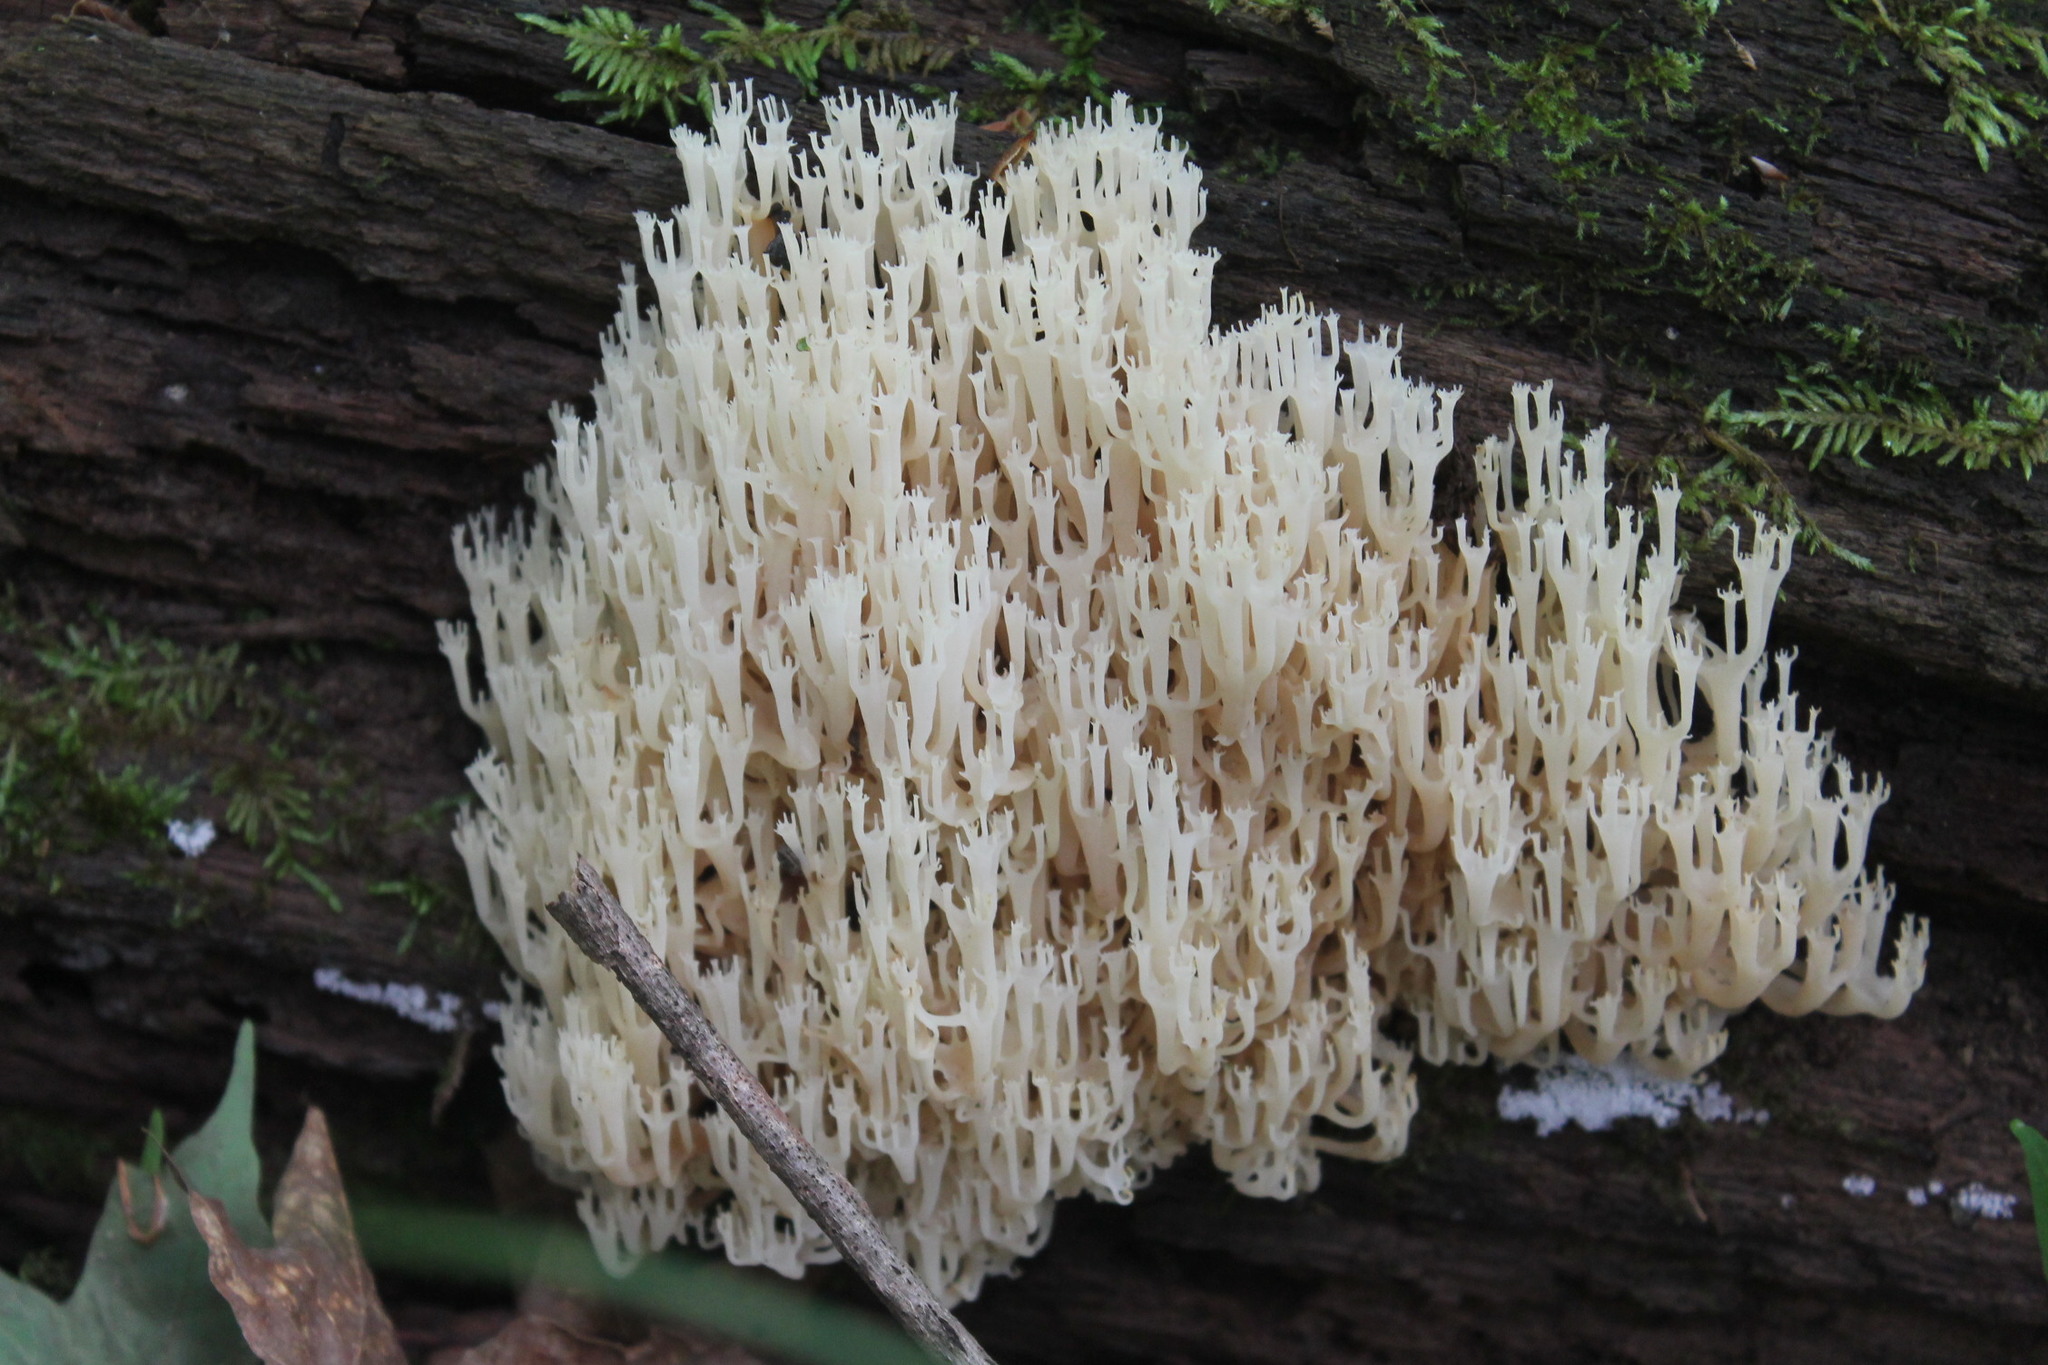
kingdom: Fungi
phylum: Basidiomycota
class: Agaricomycetes
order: Russulales
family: Auriscalpiaceae
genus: Artomyces
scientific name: Artomyces pyxidatus
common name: Crown-tipped coral fungus
